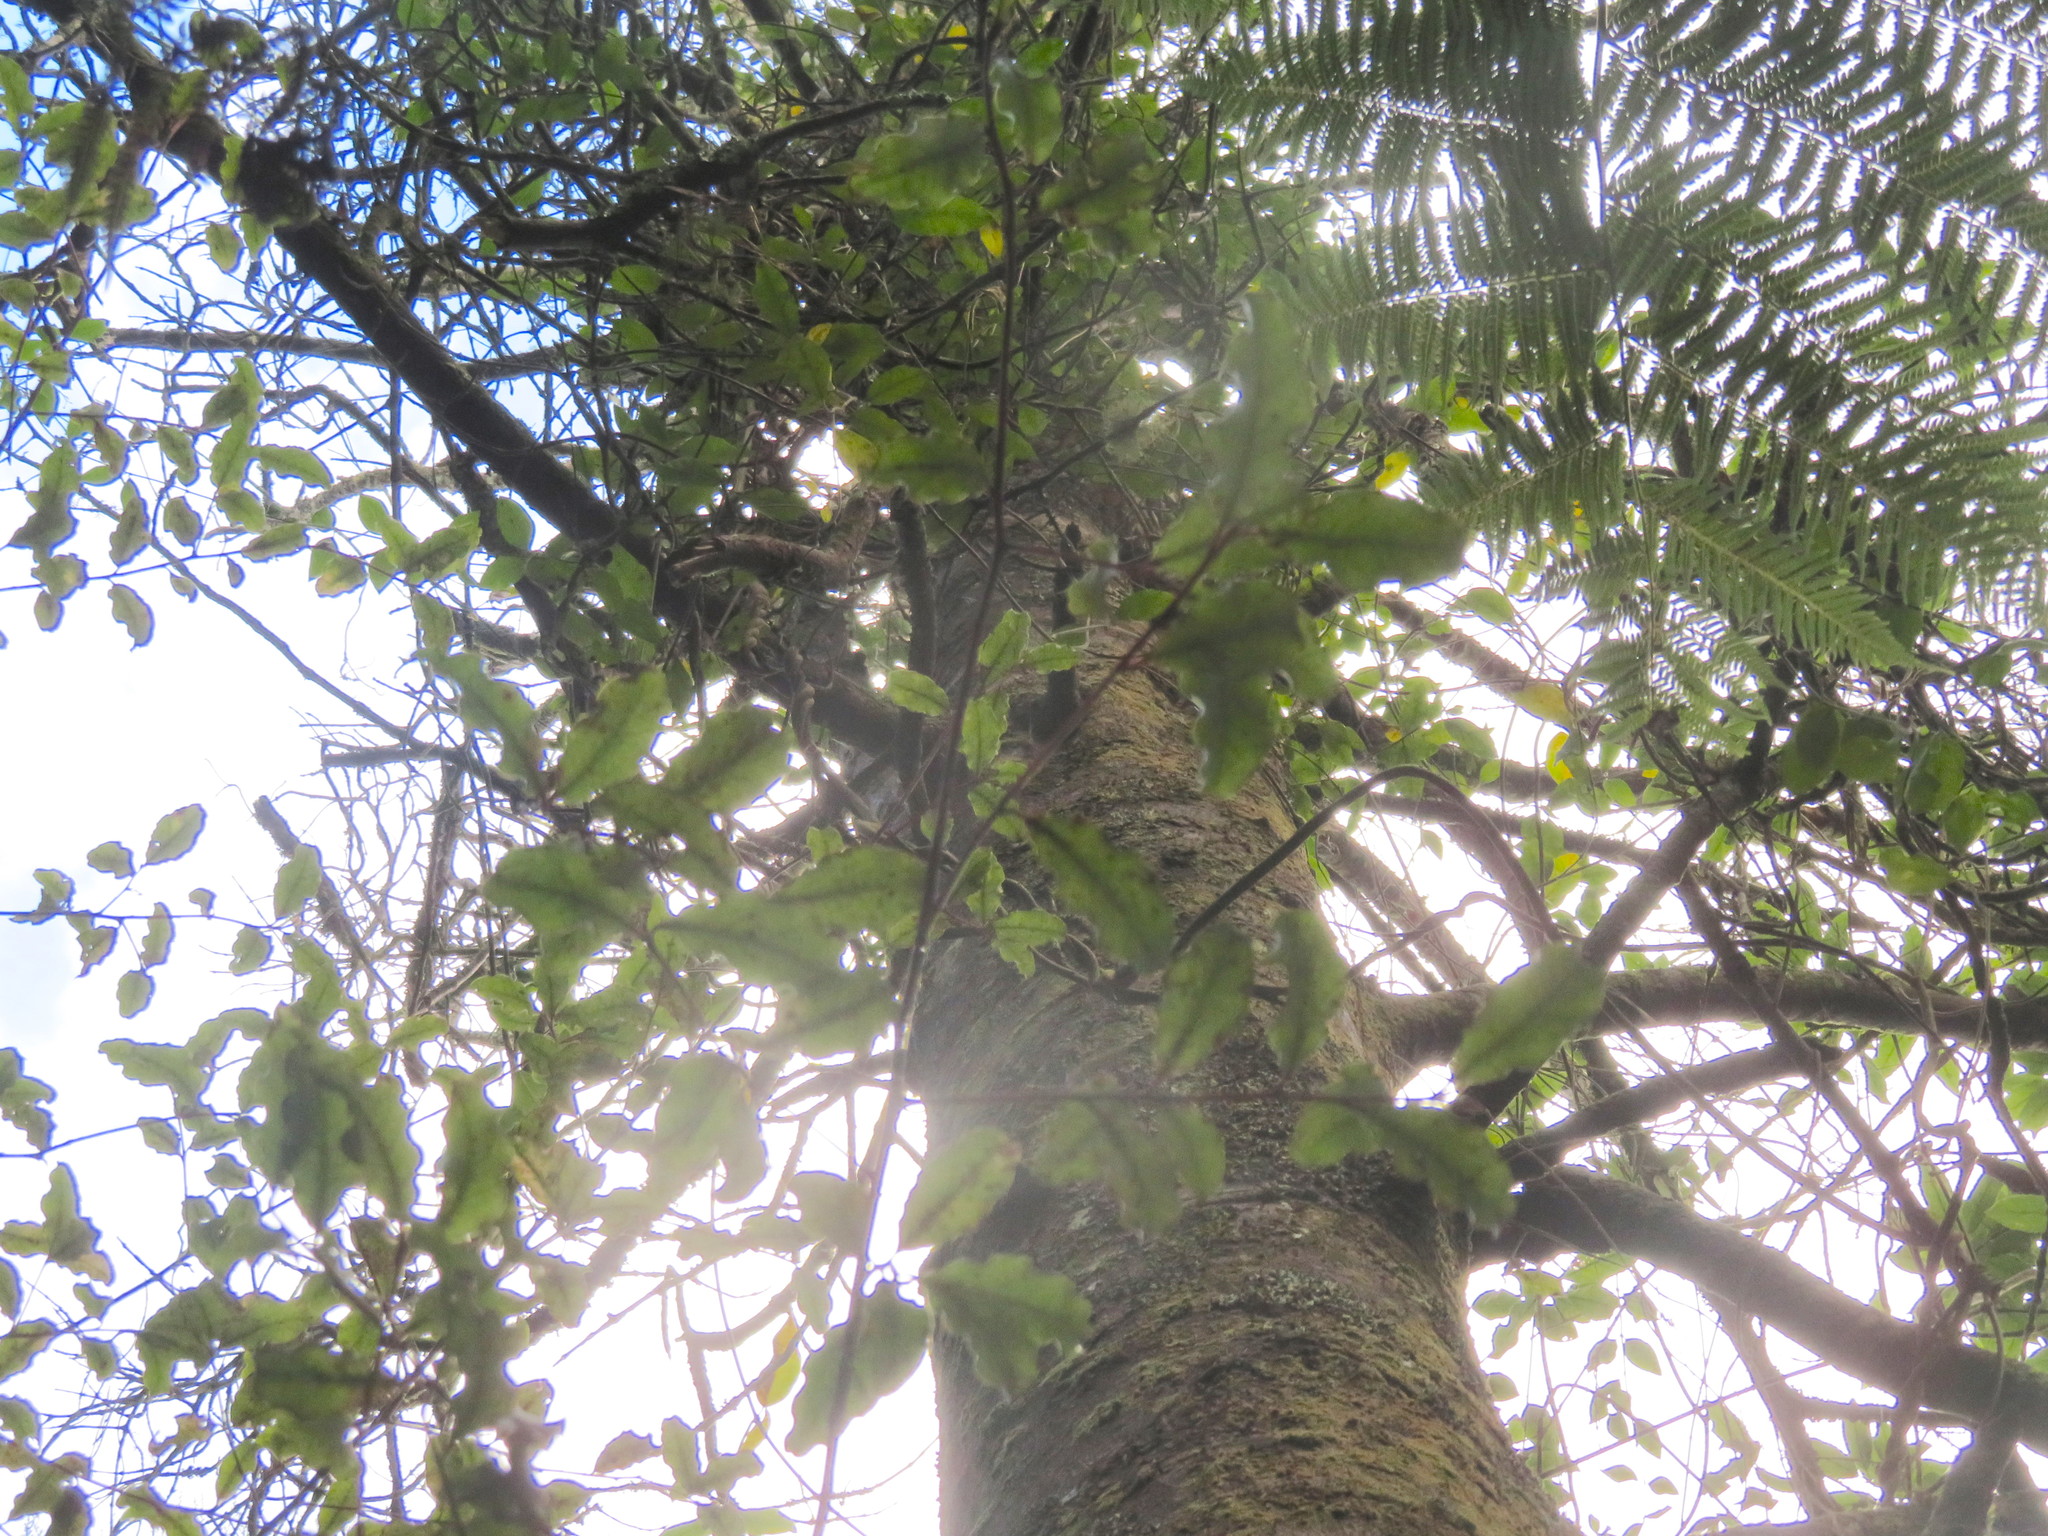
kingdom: Plantae
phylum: Tracheophyta
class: Pinopsida
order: Pinales
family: Phyllocladaceae
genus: Phyllocladus
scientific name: Phyllocladus trichomanoides
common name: Celery pine
